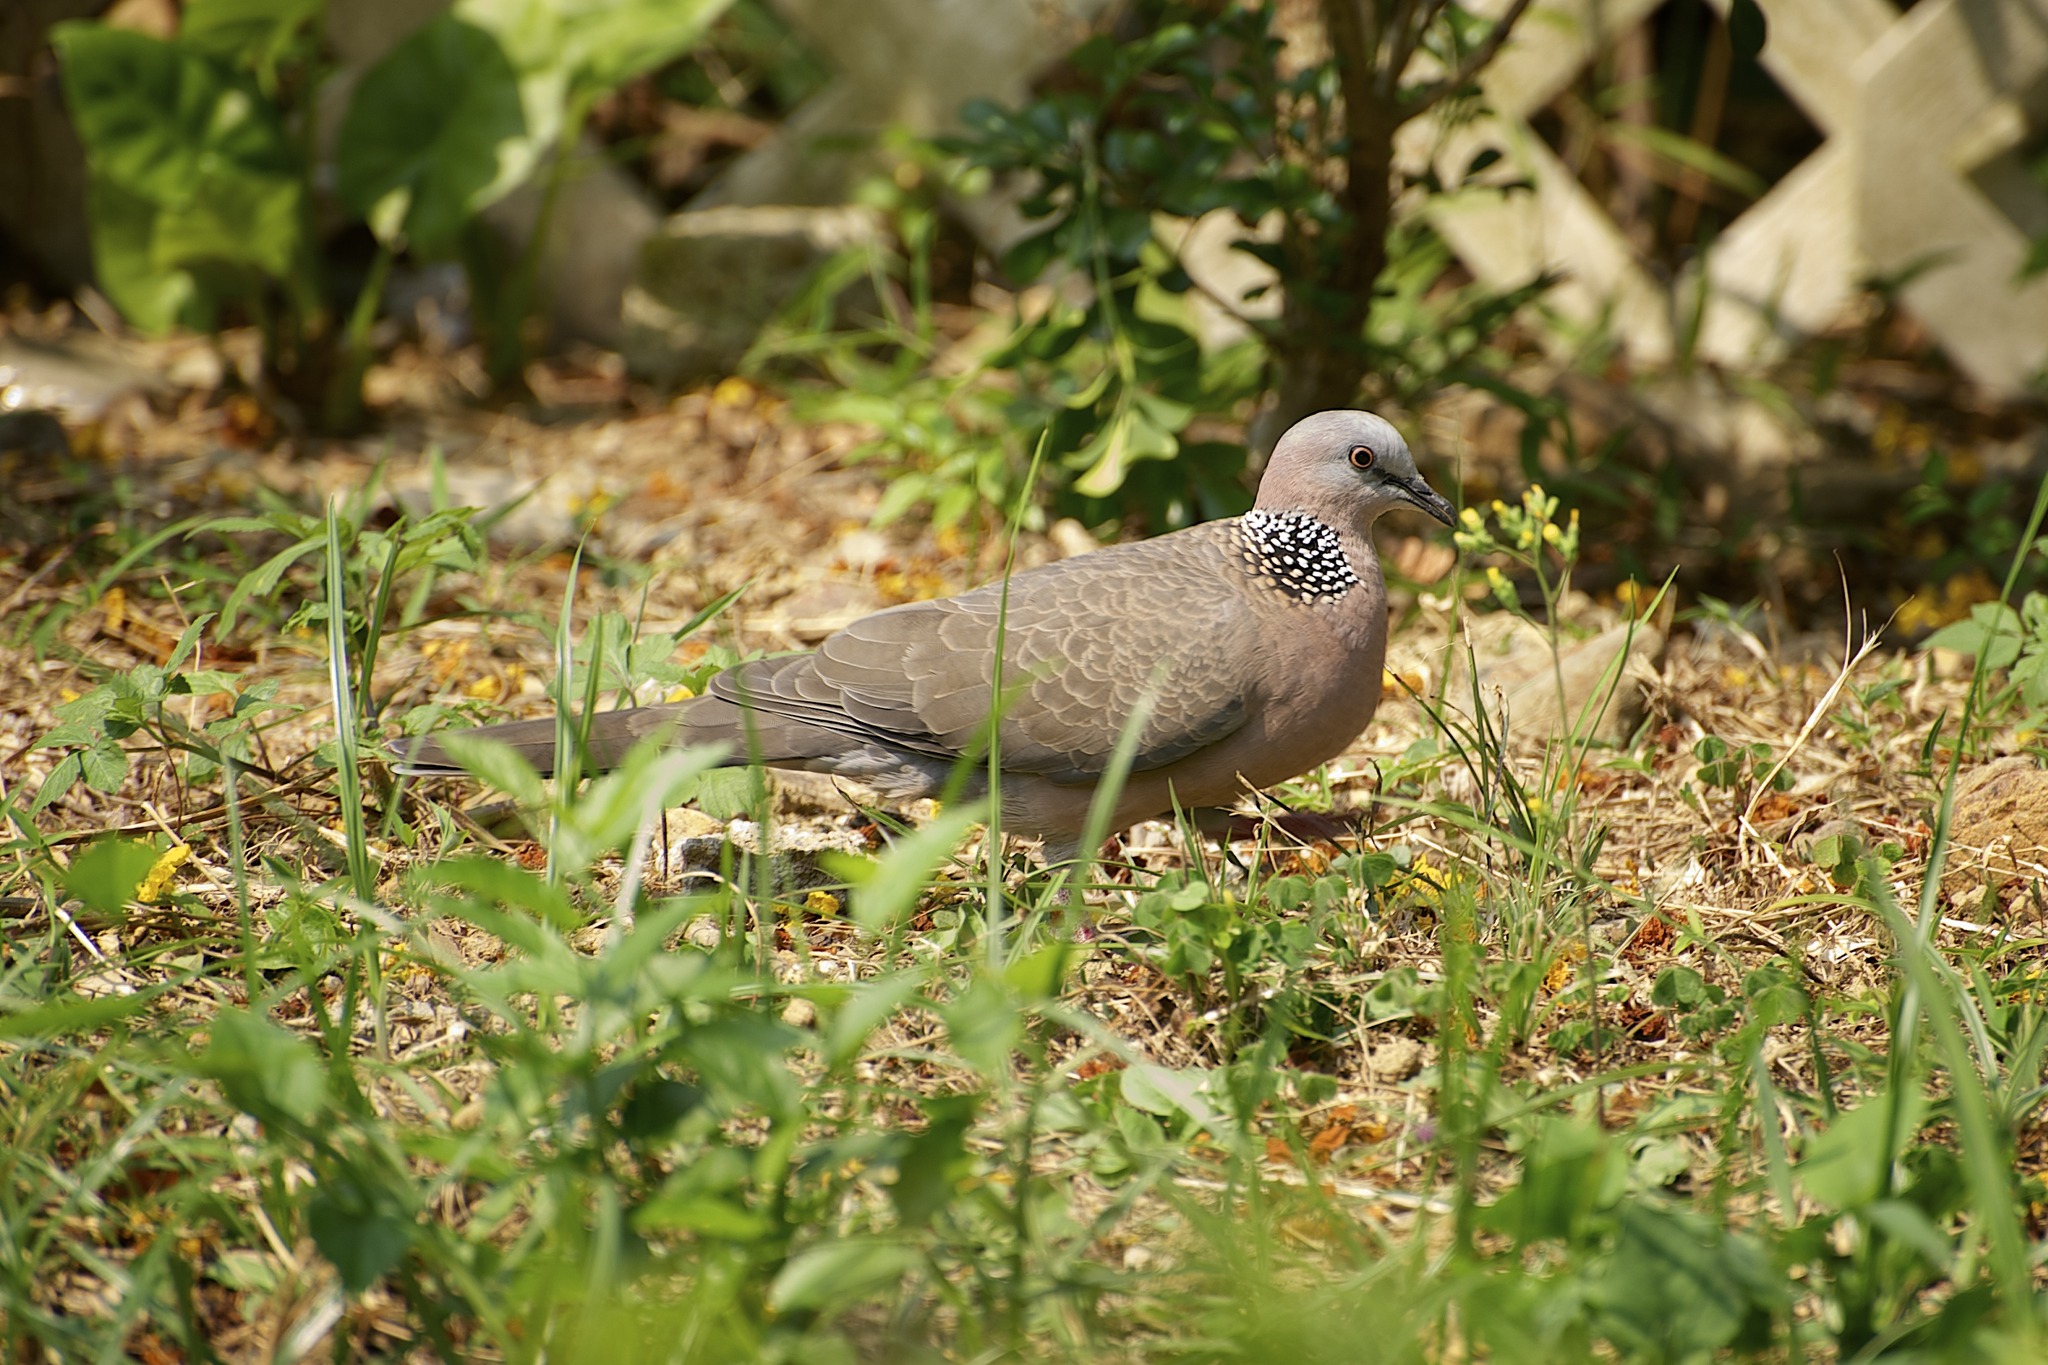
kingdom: Animalia
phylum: Chordata
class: Aves
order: Columbiformes
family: Columbidae
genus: Spilopelia
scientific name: Spilopelia chinensis
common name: Spotted dove
